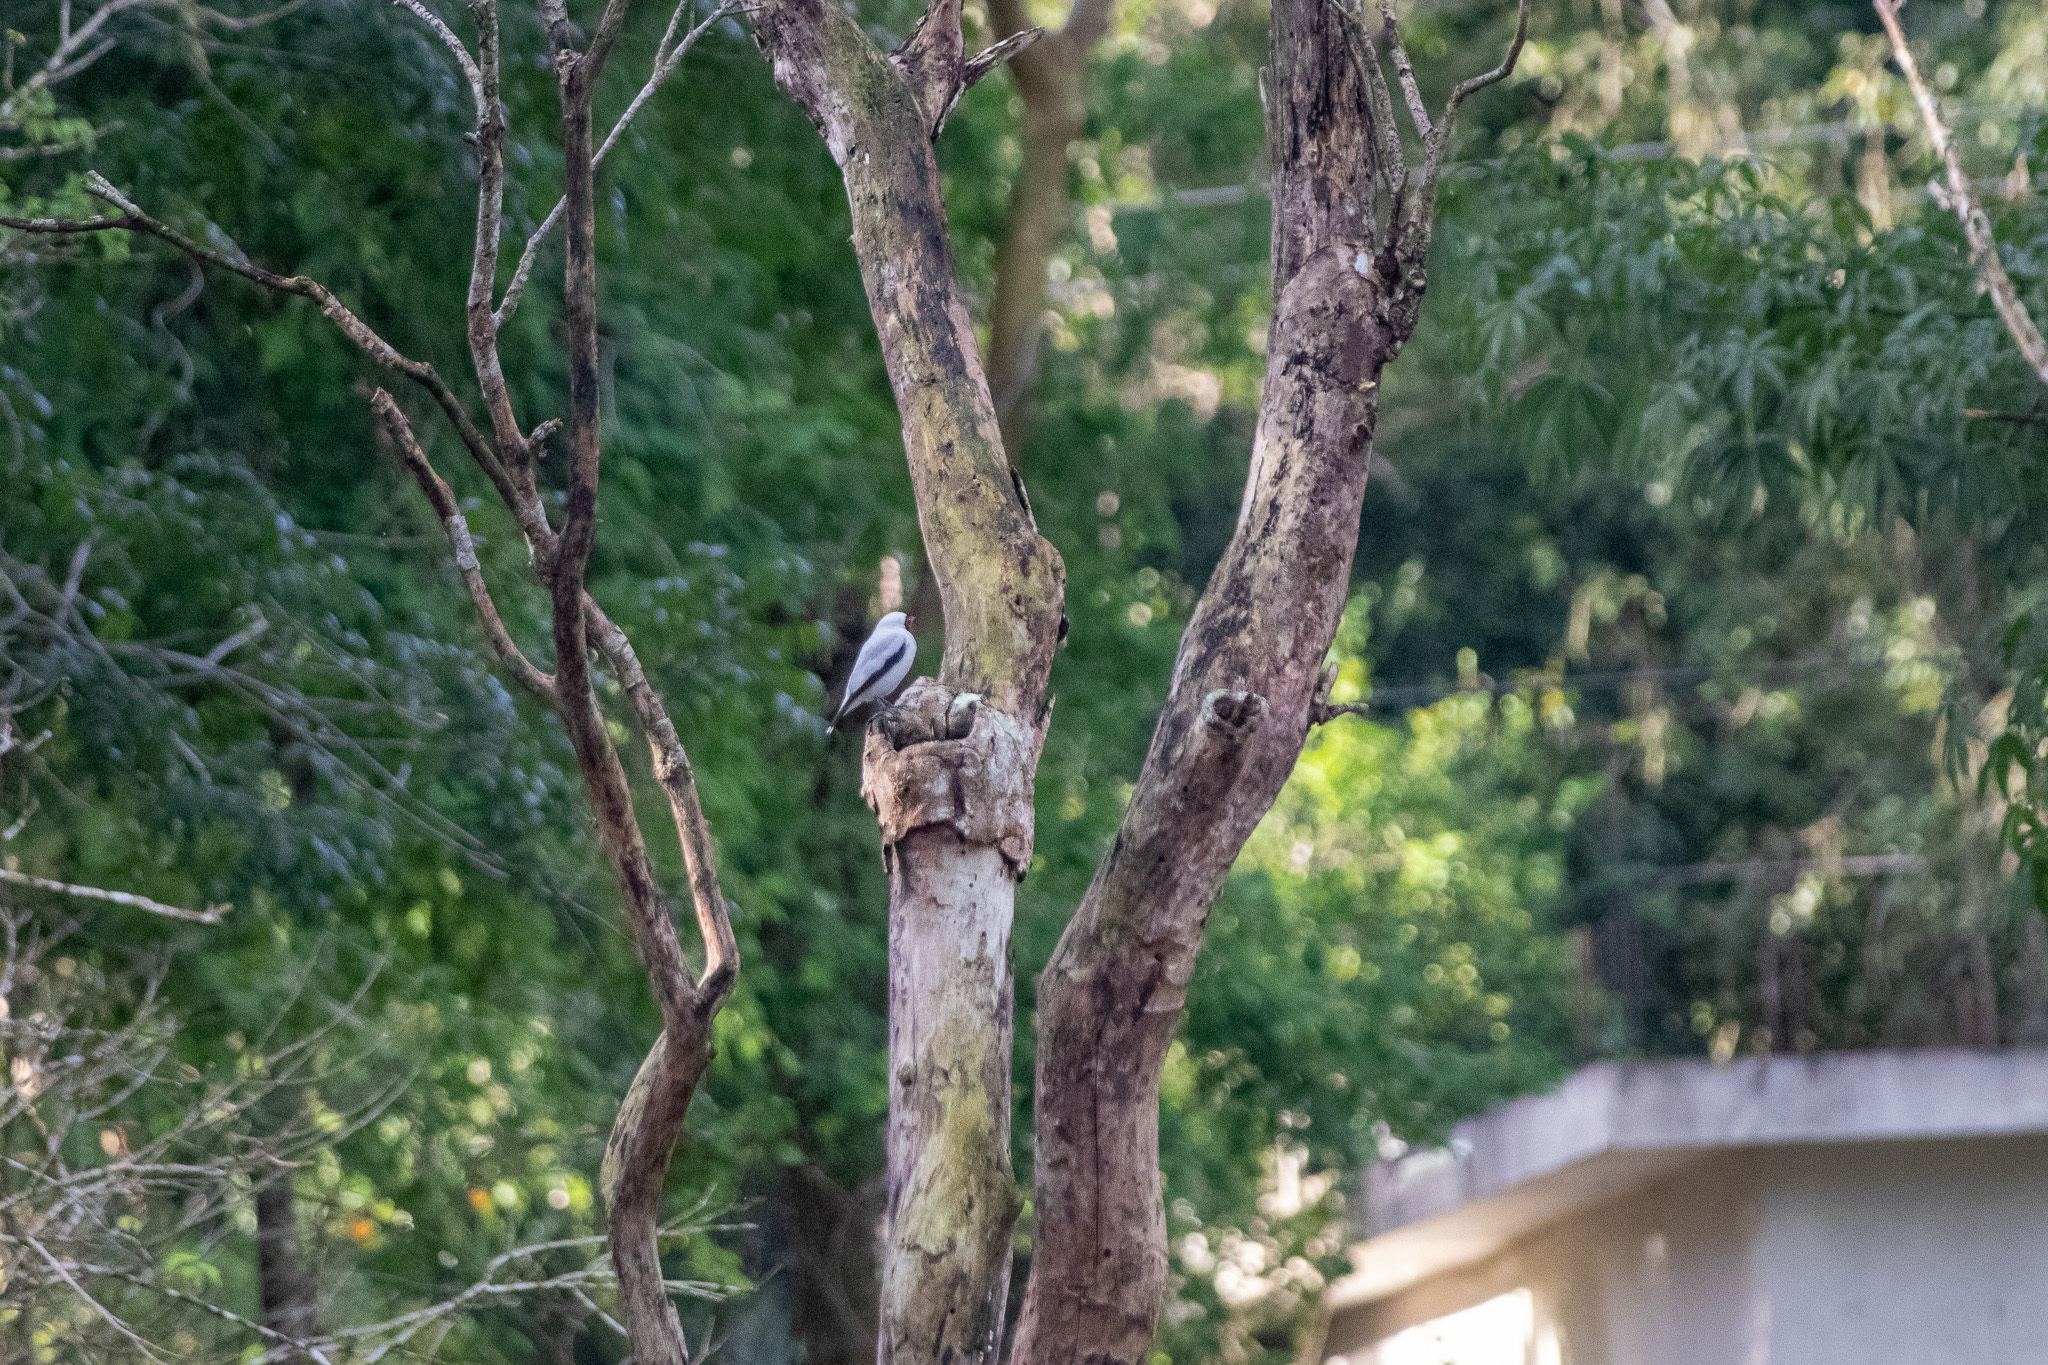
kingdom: Animalia
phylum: Chordata
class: Aves
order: Passeriformes
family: Cotingidae
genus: Tityra
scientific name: Tityra semifasciata
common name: Masked tityra
